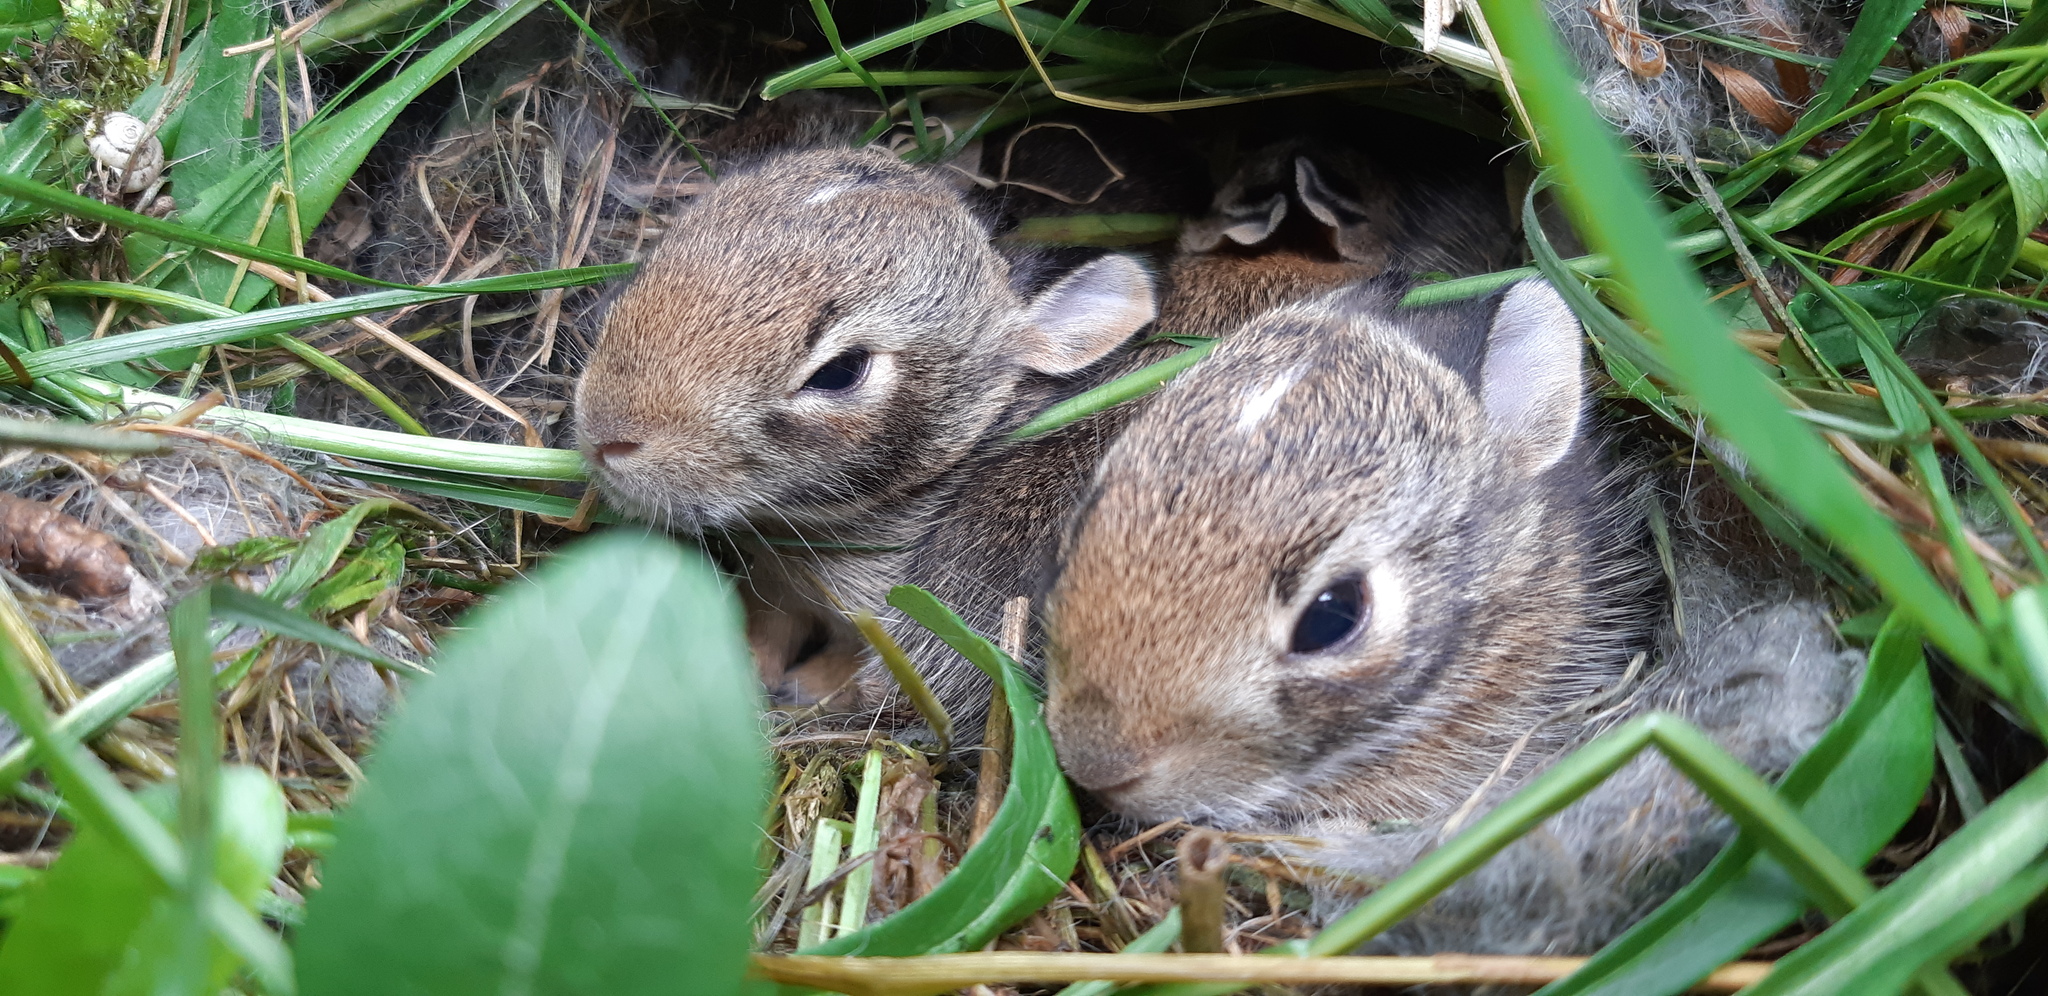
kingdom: Animalia
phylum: Chordata
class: Mammalia
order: Lagomorpha
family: Leporidae
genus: Sylvilagus
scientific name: Sylvilagus floridanus
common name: Eastern cottontail
